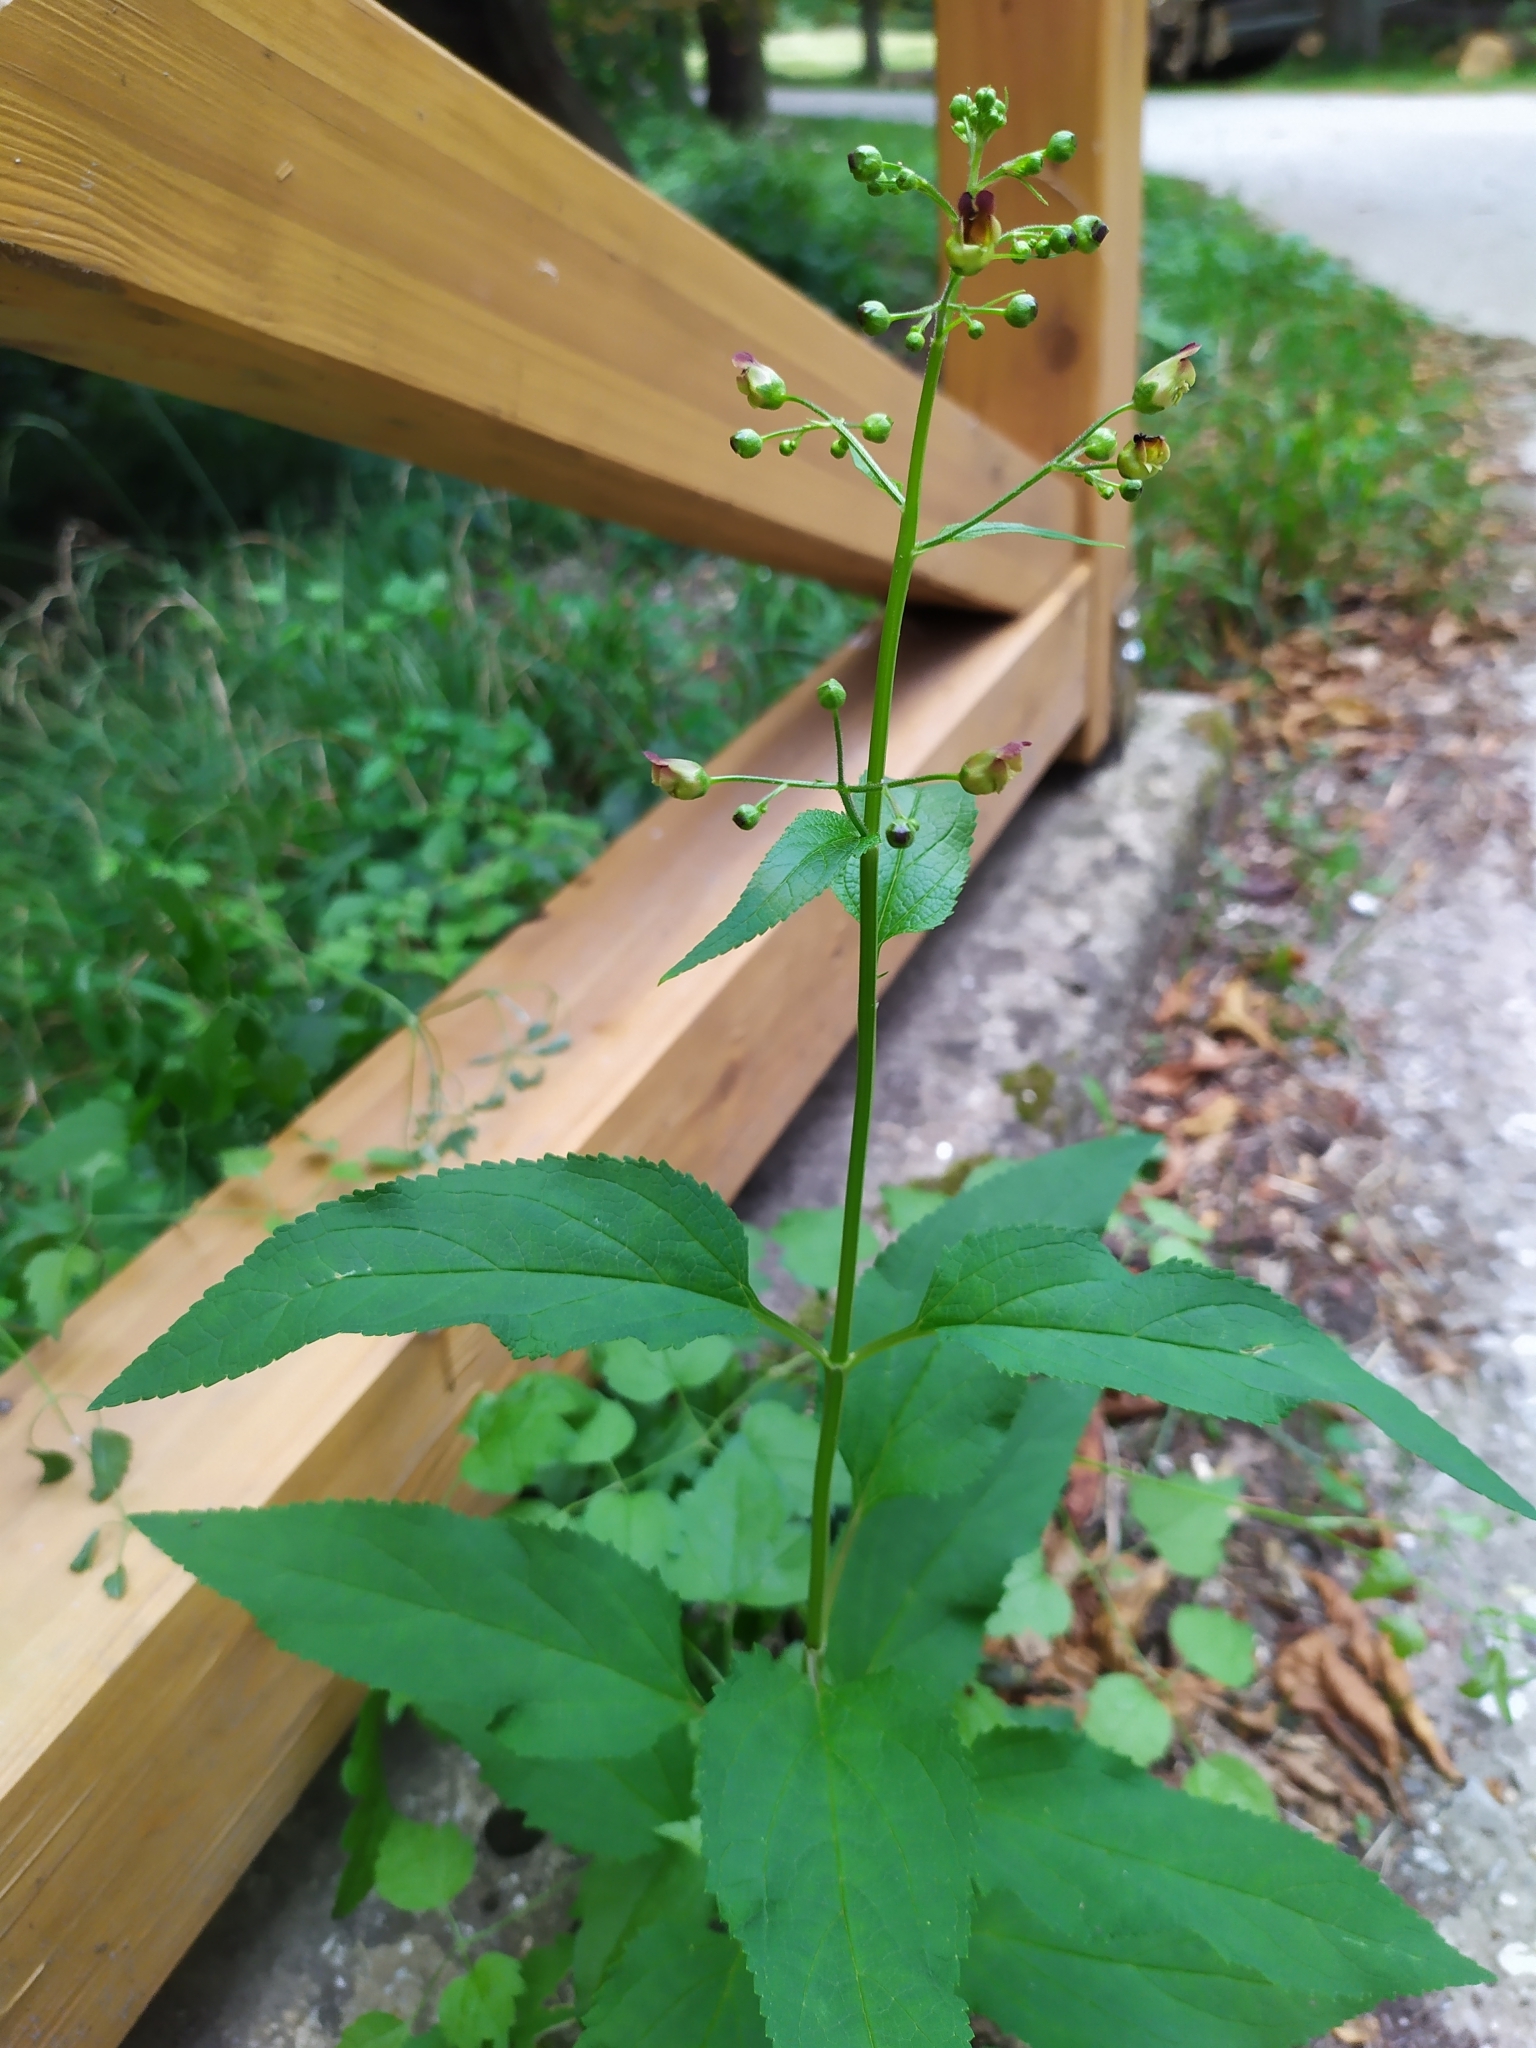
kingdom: Plantae
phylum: Tracheophyta
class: Magnoliopsida
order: Lamiales
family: Scrophulariaceae
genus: Scrophularia
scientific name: Scrophularia nodosa
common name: Common figwort
